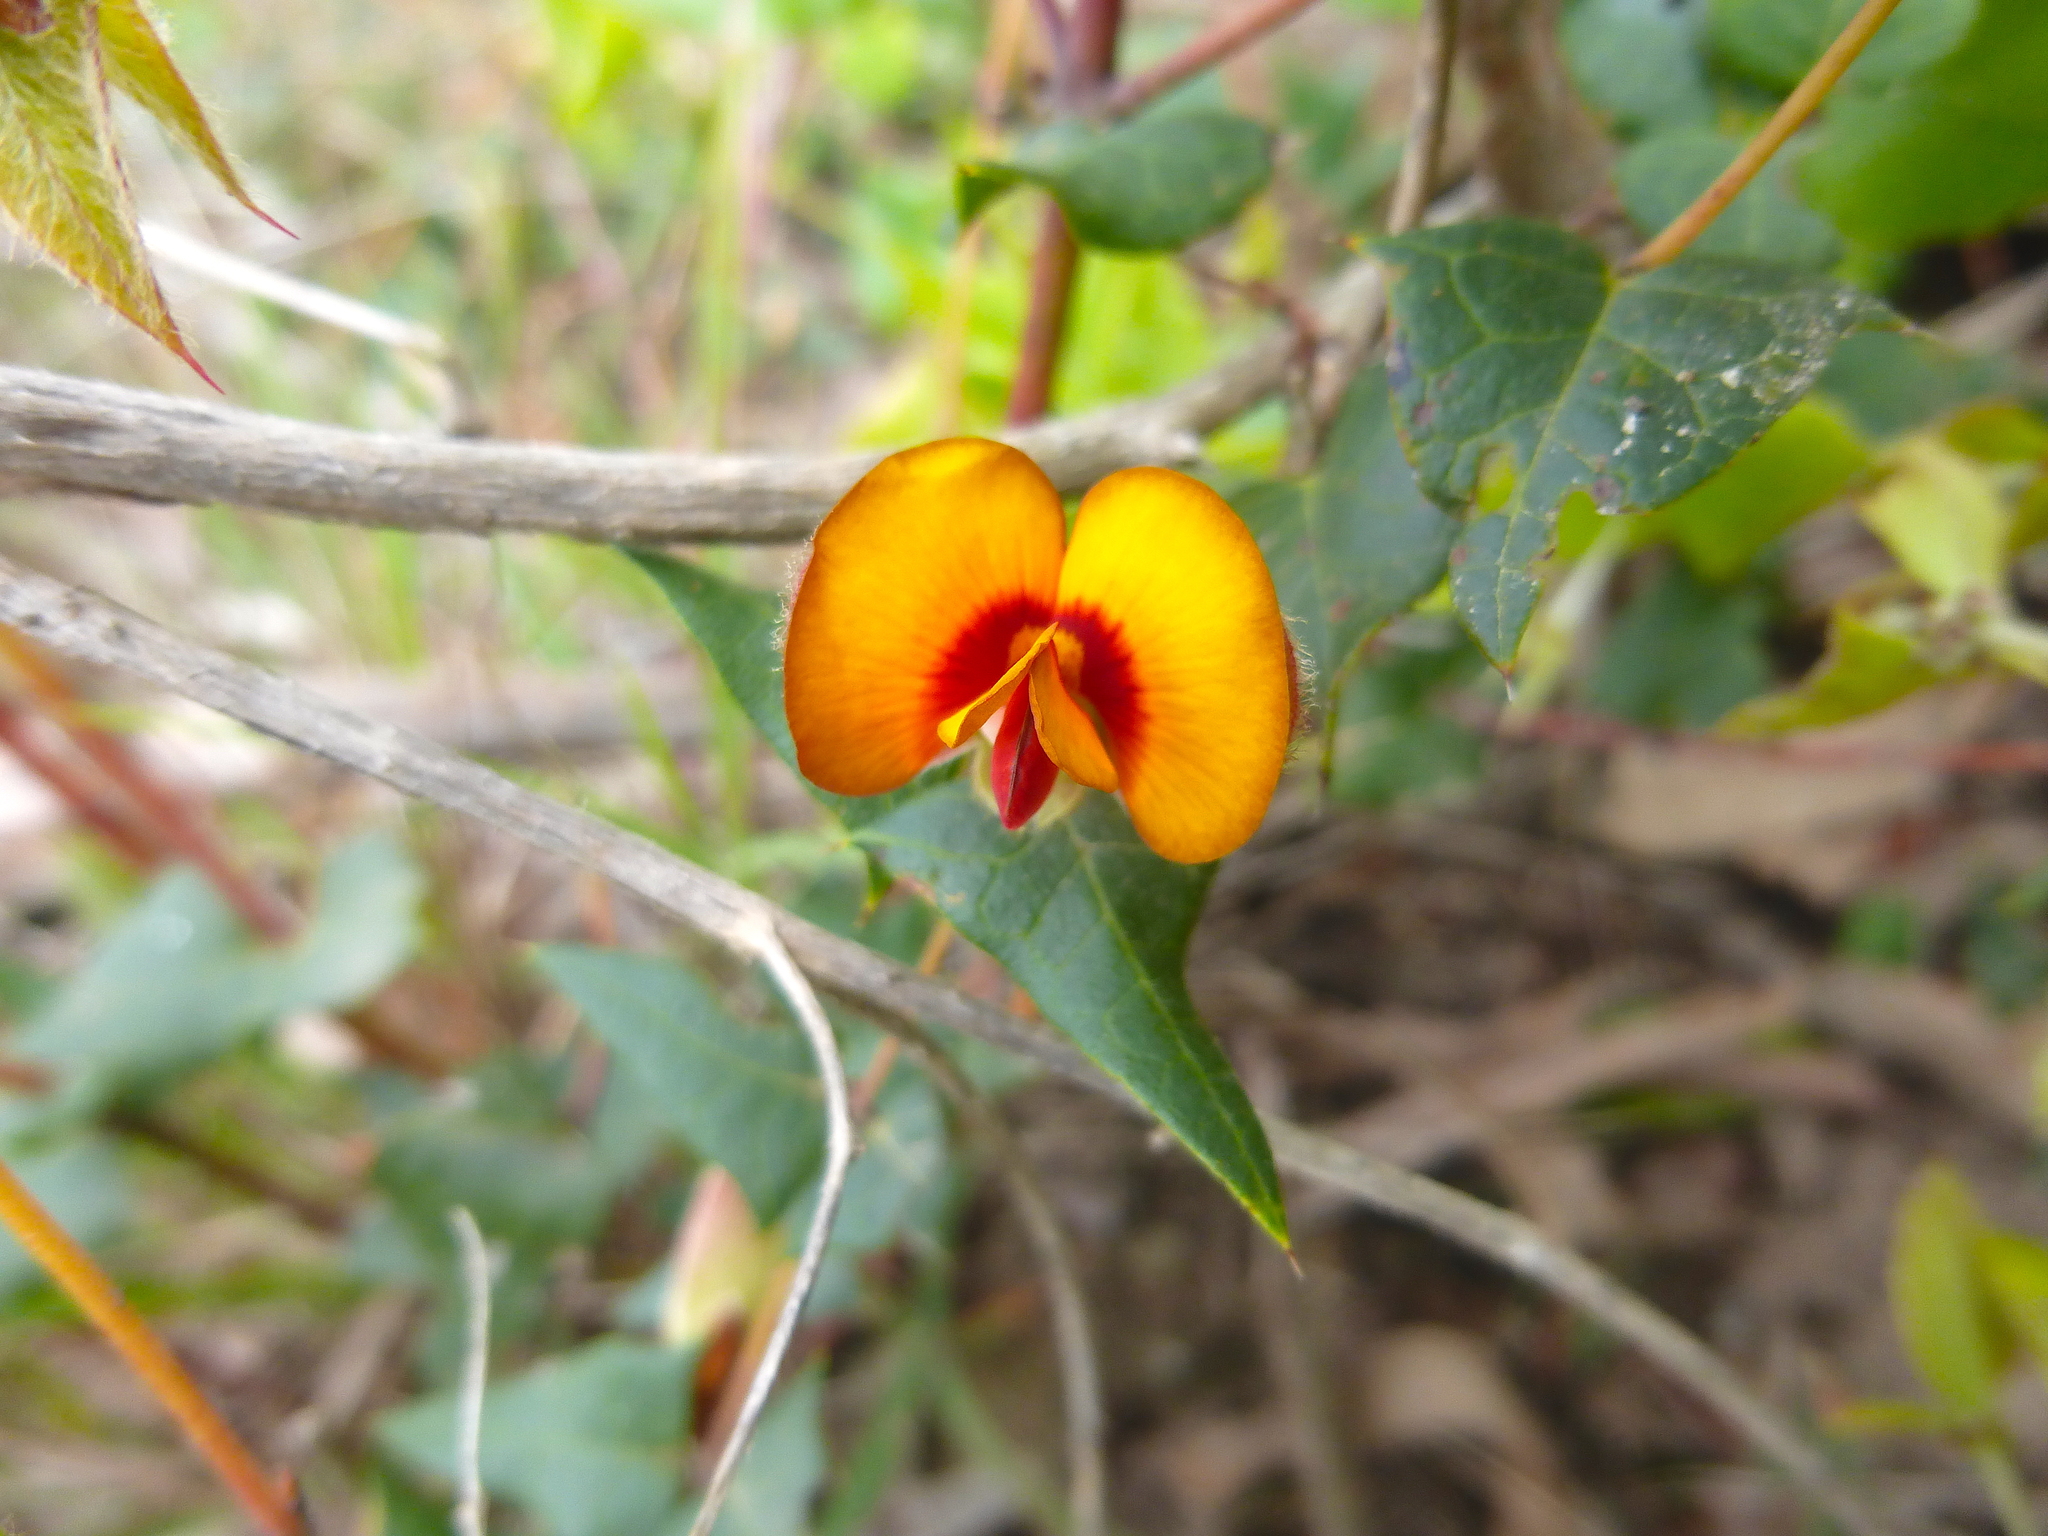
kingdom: Plantae
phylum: Tracheophyta
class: Magnoliopsida
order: Fabales
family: Fabaceae
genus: Platylobium
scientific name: Platylobium obtusangulum
